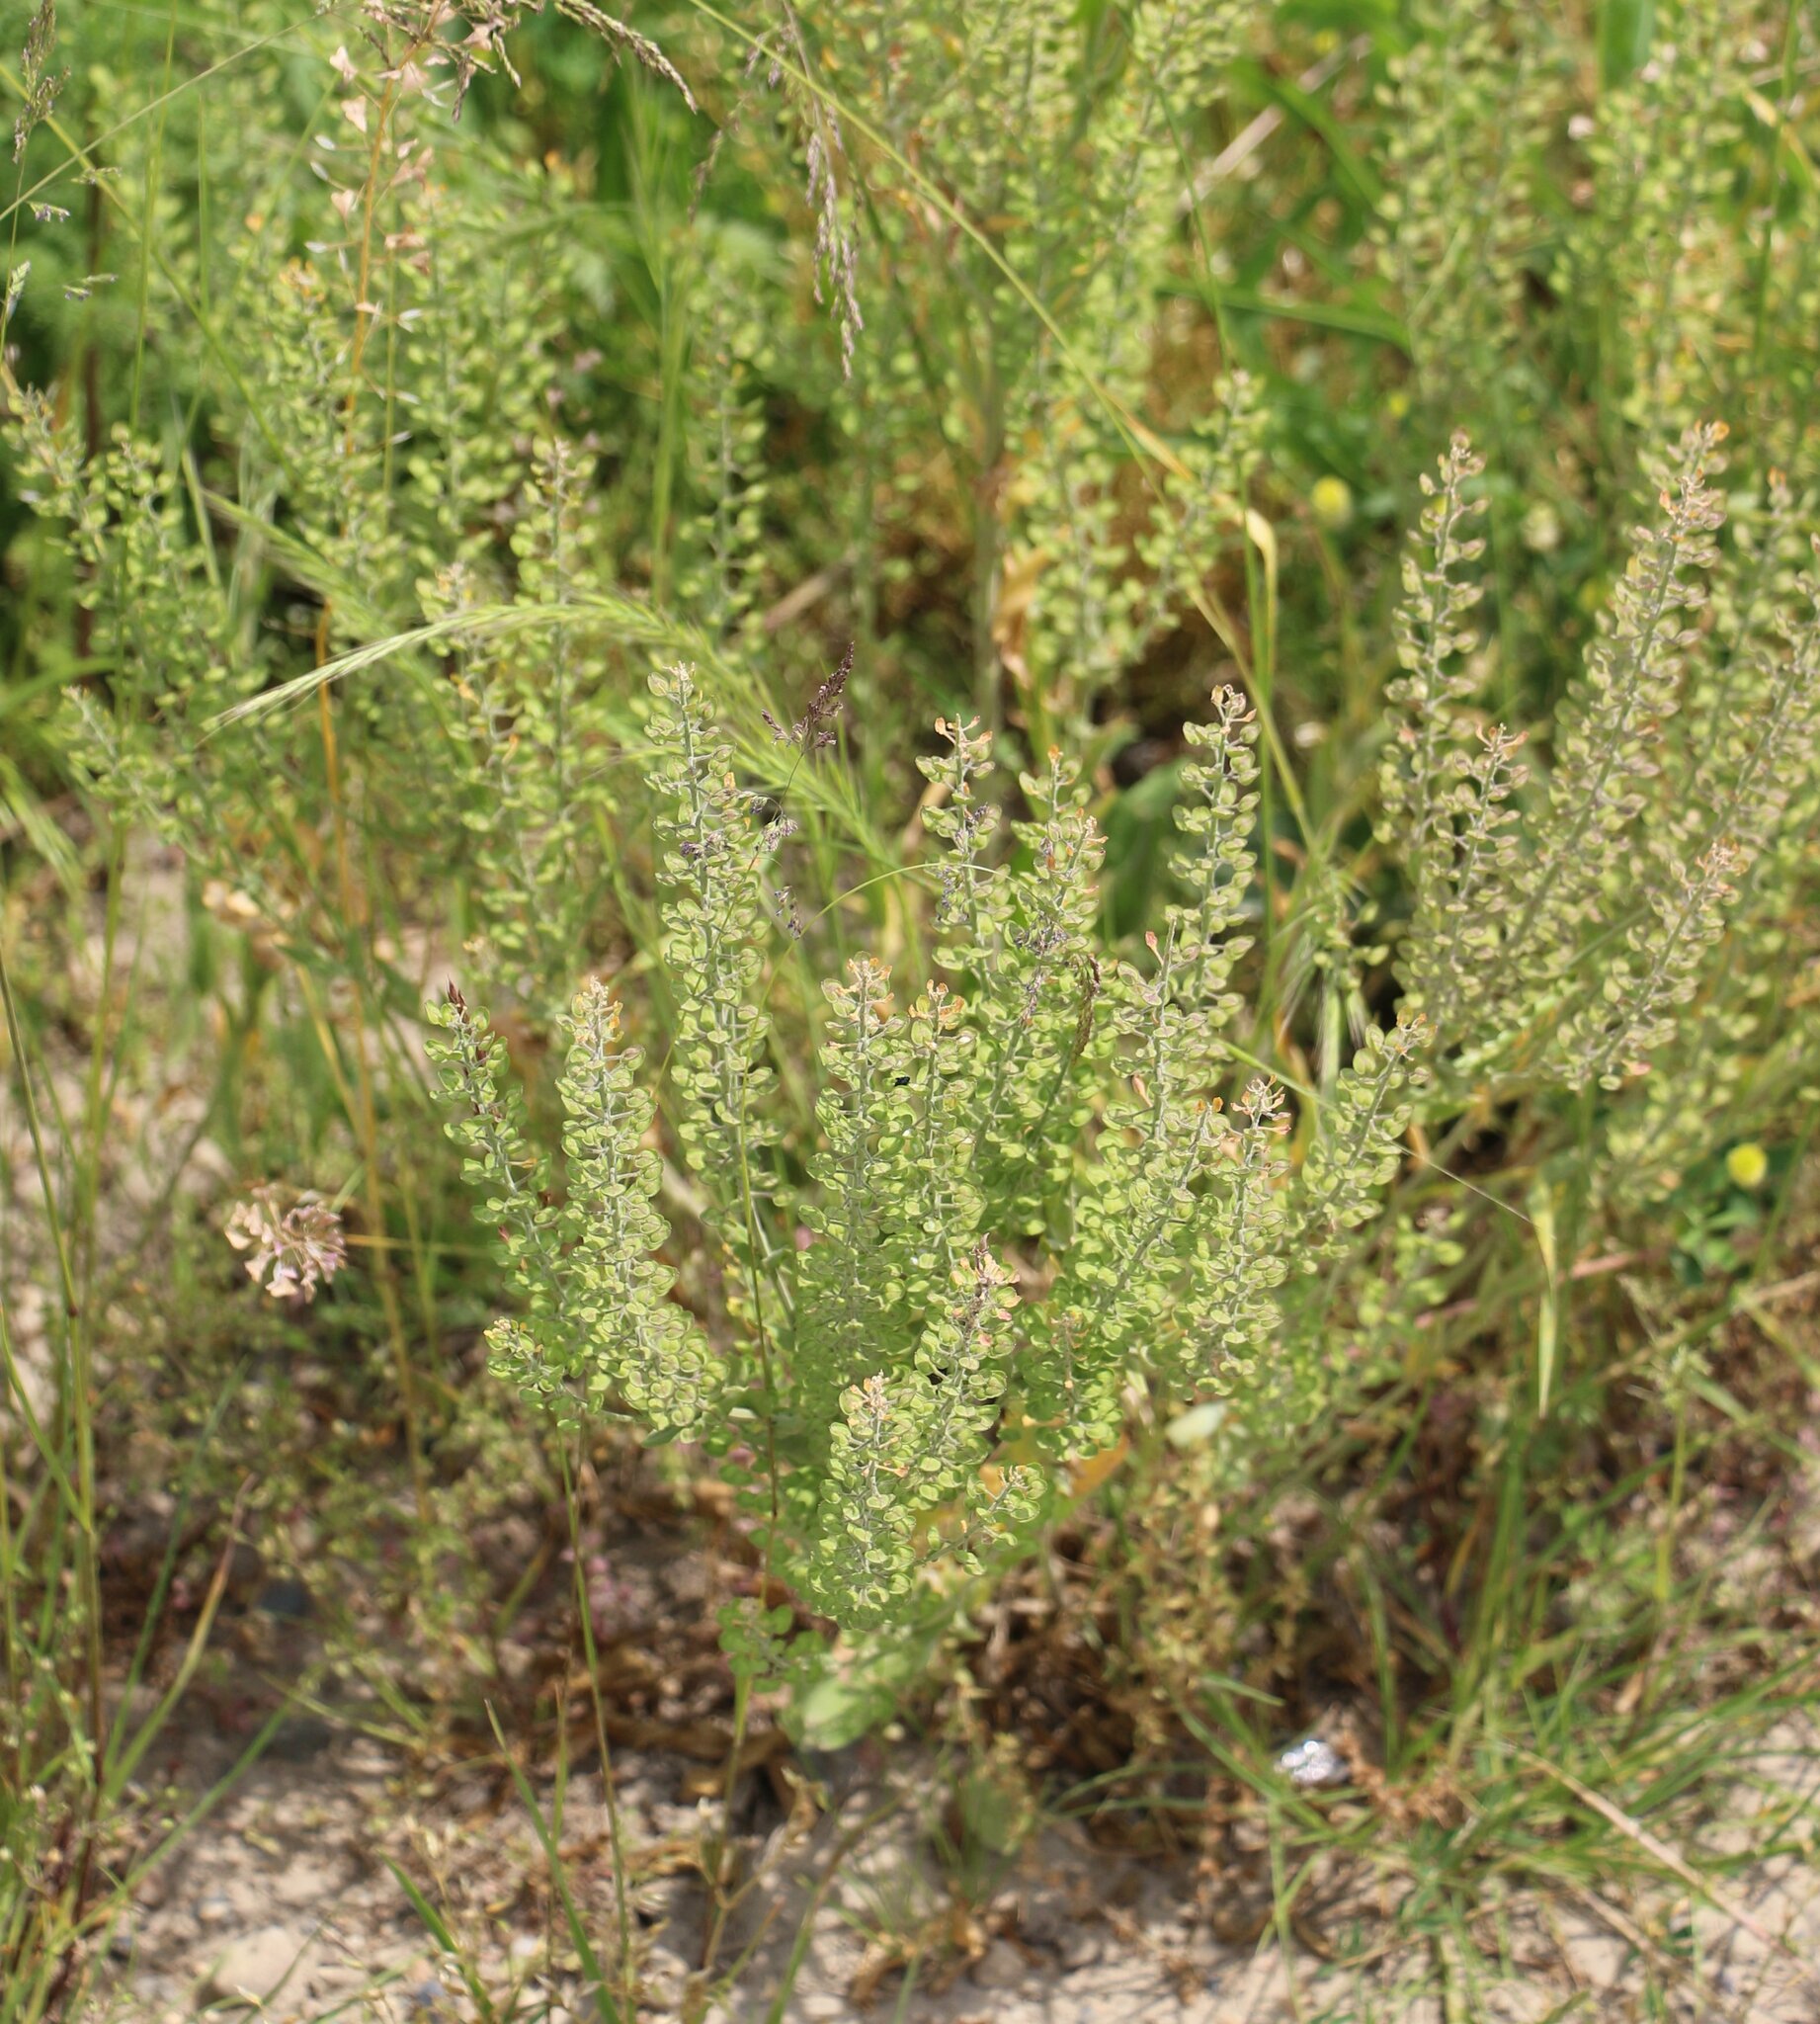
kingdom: Plantae
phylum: Tracheophyta
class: Magnoliopsida
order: Brassicales
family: Brassicaceae
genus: Lepidium
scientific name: Lepidium campestre
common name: Field pepperwort
